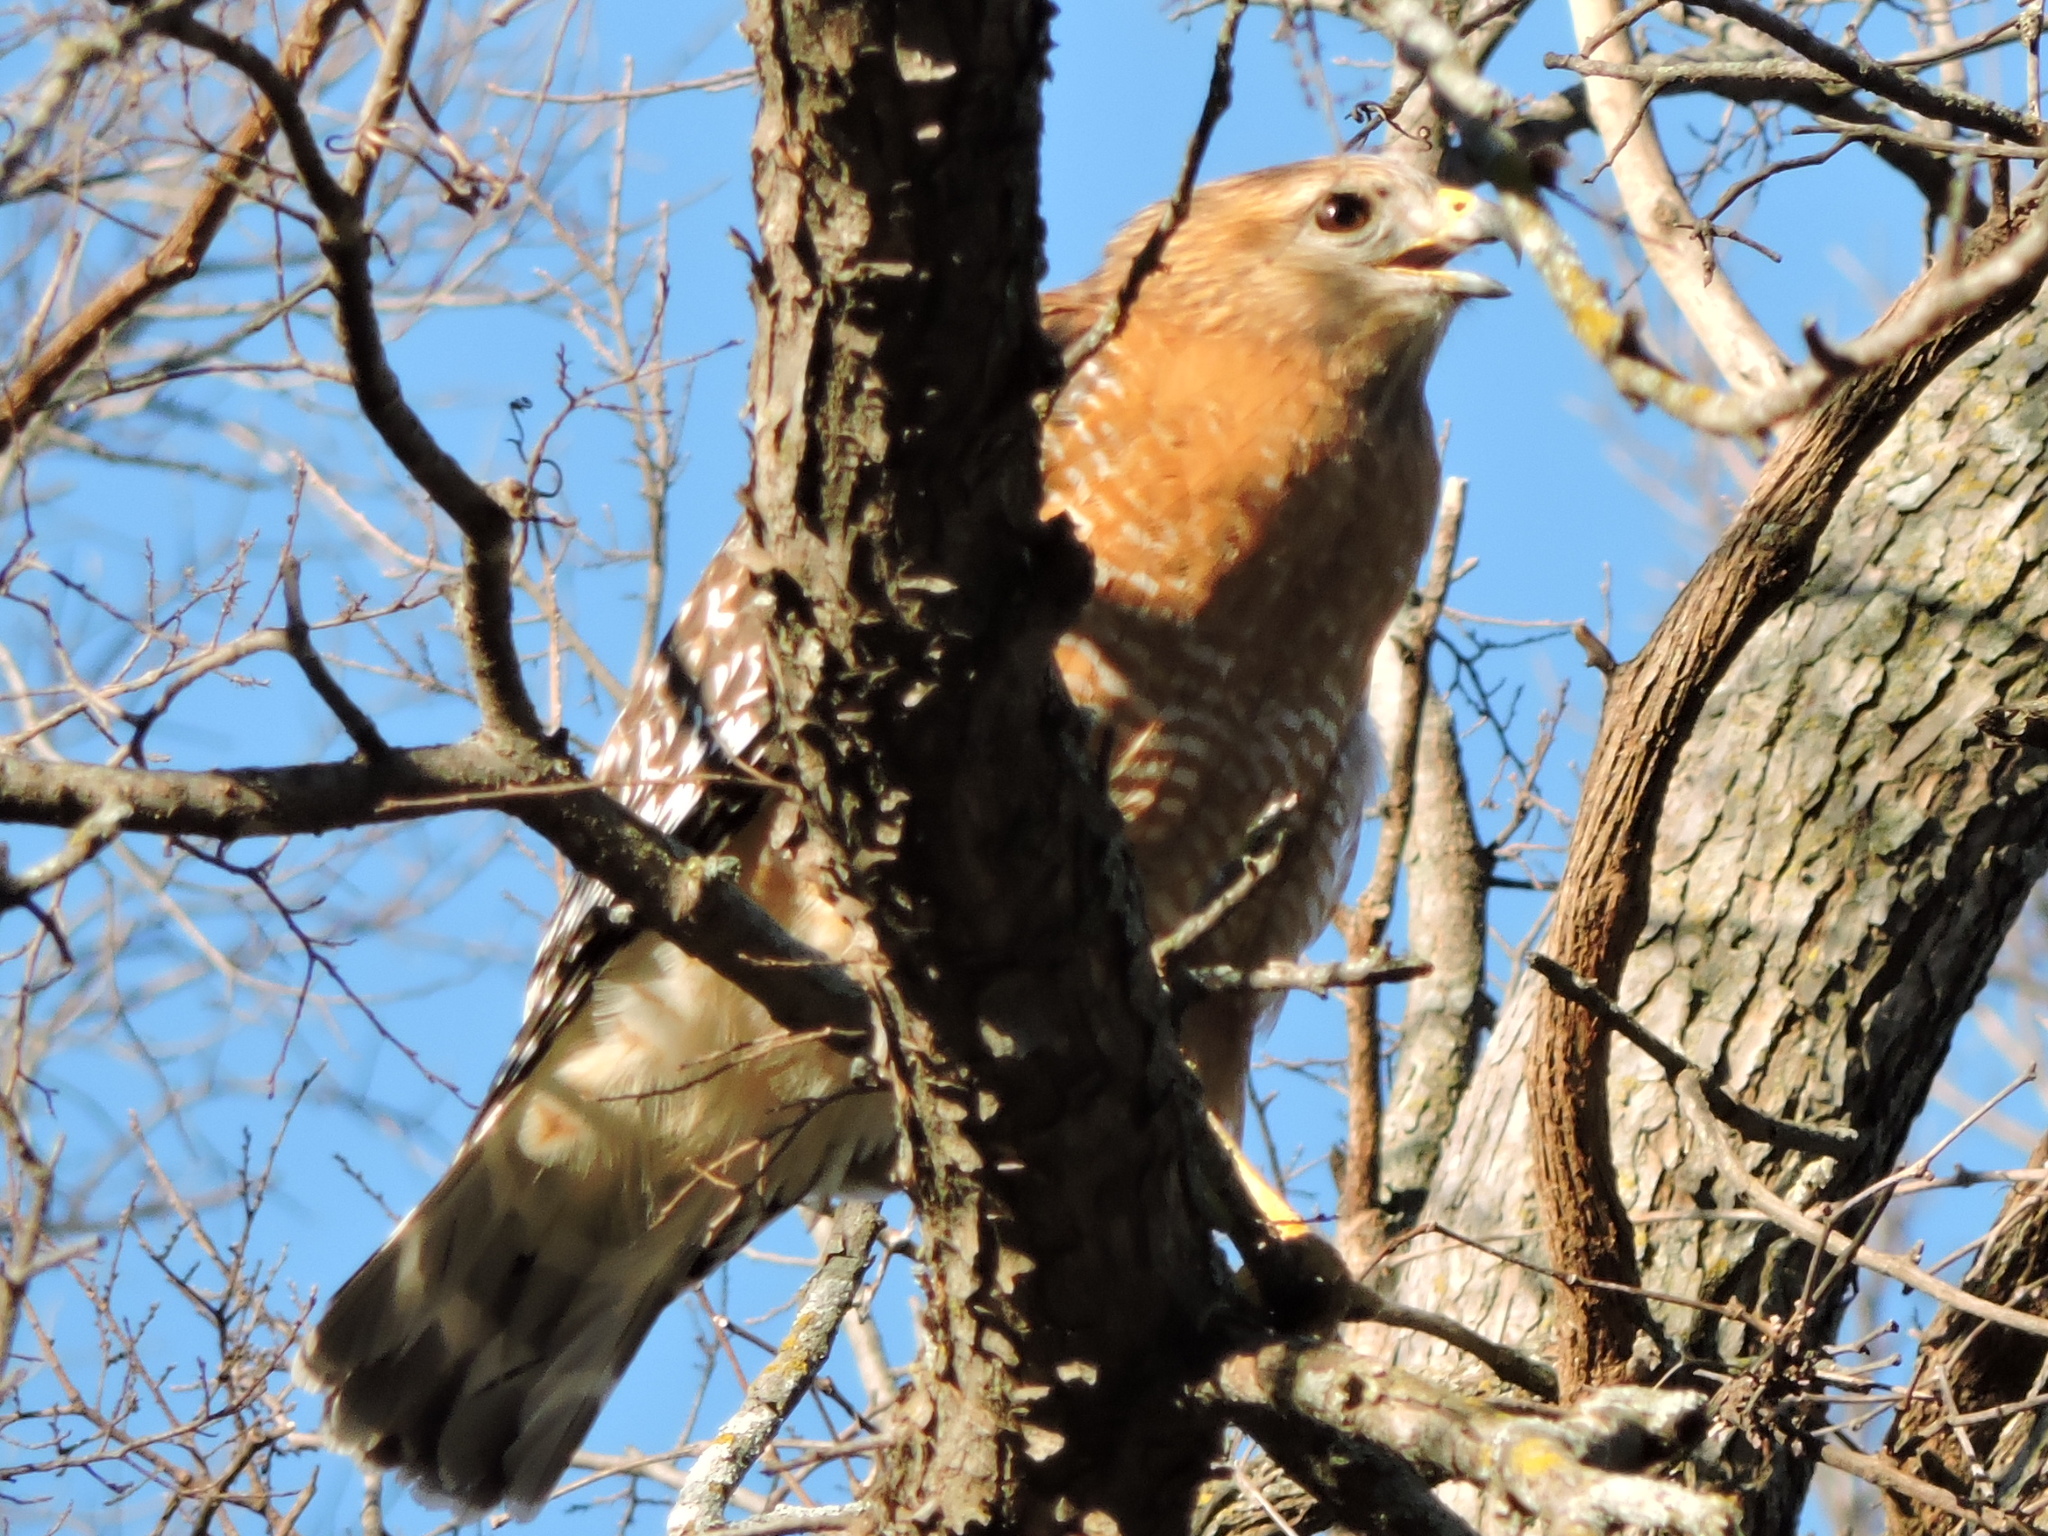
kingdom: Animalia
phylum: Chordata
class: Aves
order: Accipitriformes
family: Accipitridae
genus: Buteo
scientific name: Buteo lineatus
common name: Red-shouldered hawk
